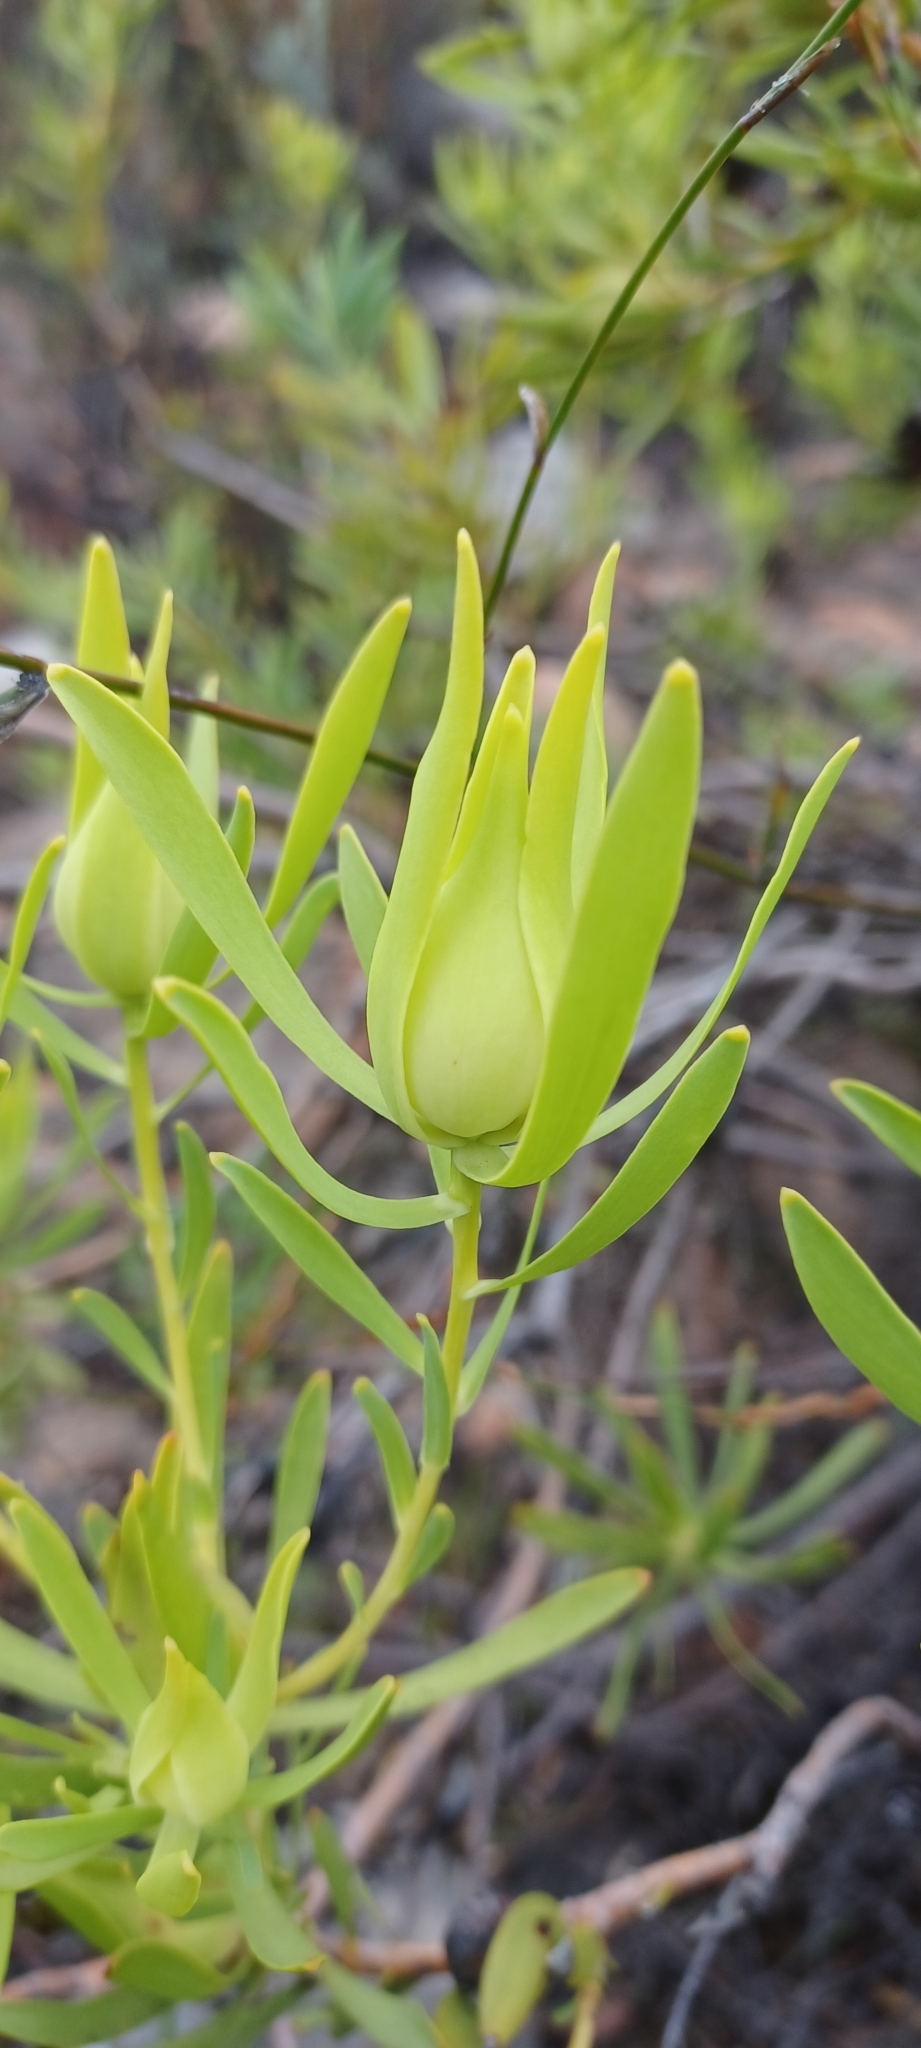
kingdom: Plantae
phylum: Tracheophyta
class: Magnoliopsida
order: Proteales
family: Proteaceae
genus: Leucadendron
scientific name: Leucadendron salignum
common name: Common sunshine conebush
